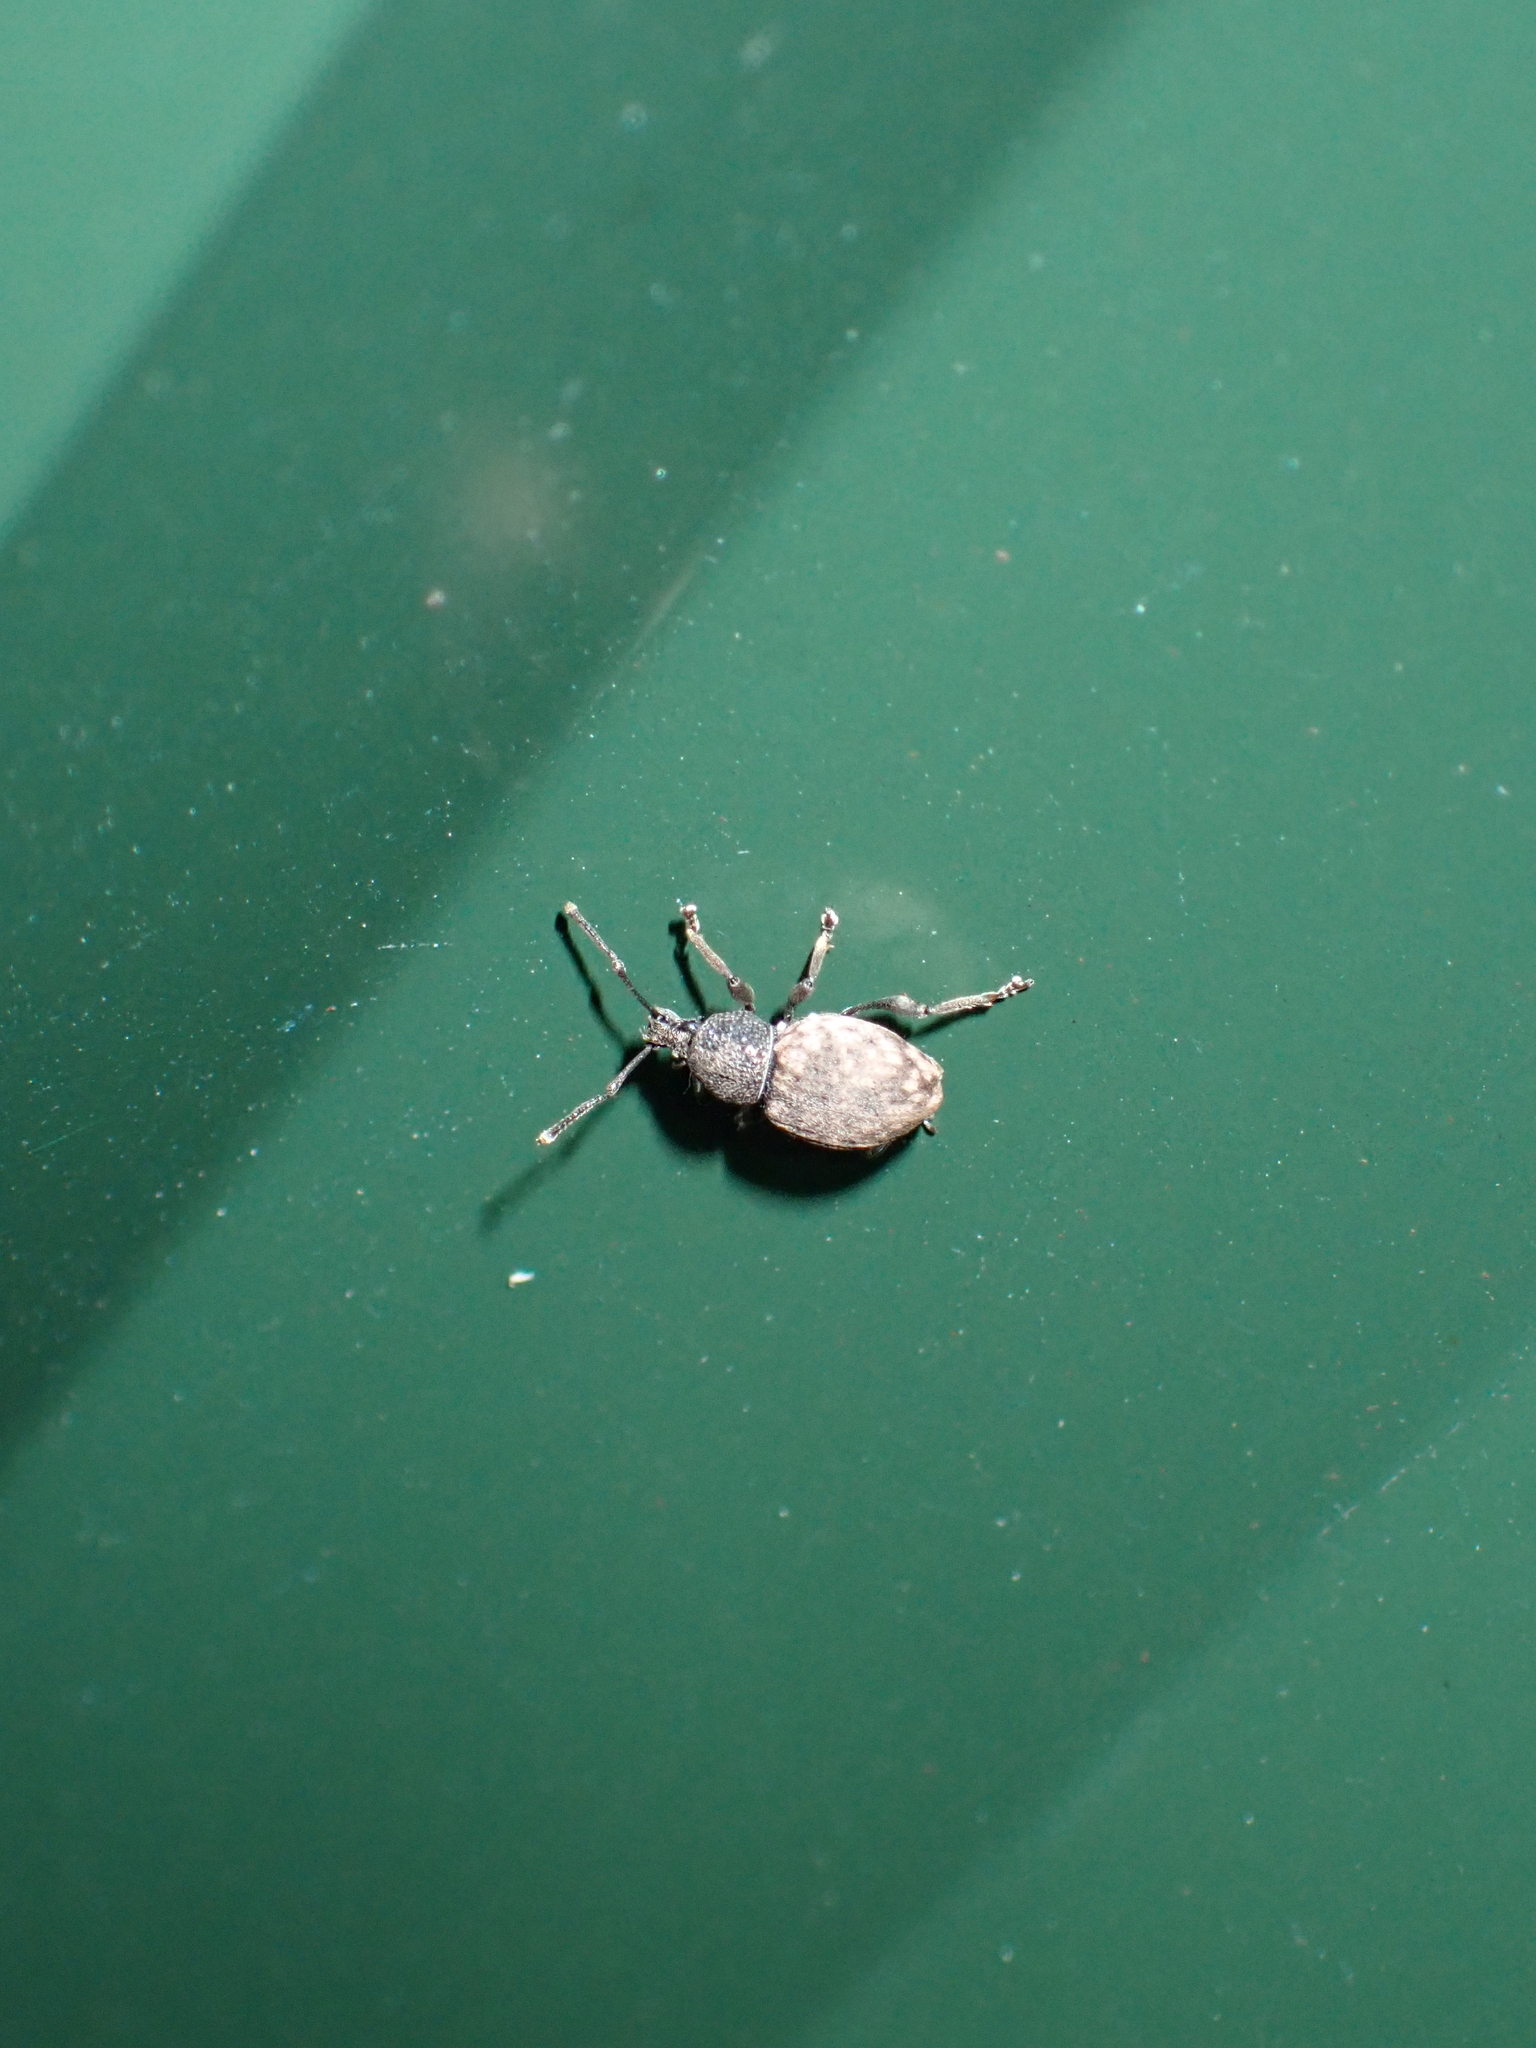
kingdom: Animalia
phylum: Arthropoda
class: Insecta
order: Coleoptera
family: Curculionidae
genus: Otiorhynchus
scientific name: Otiorhynchus raucus
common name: Weevil
